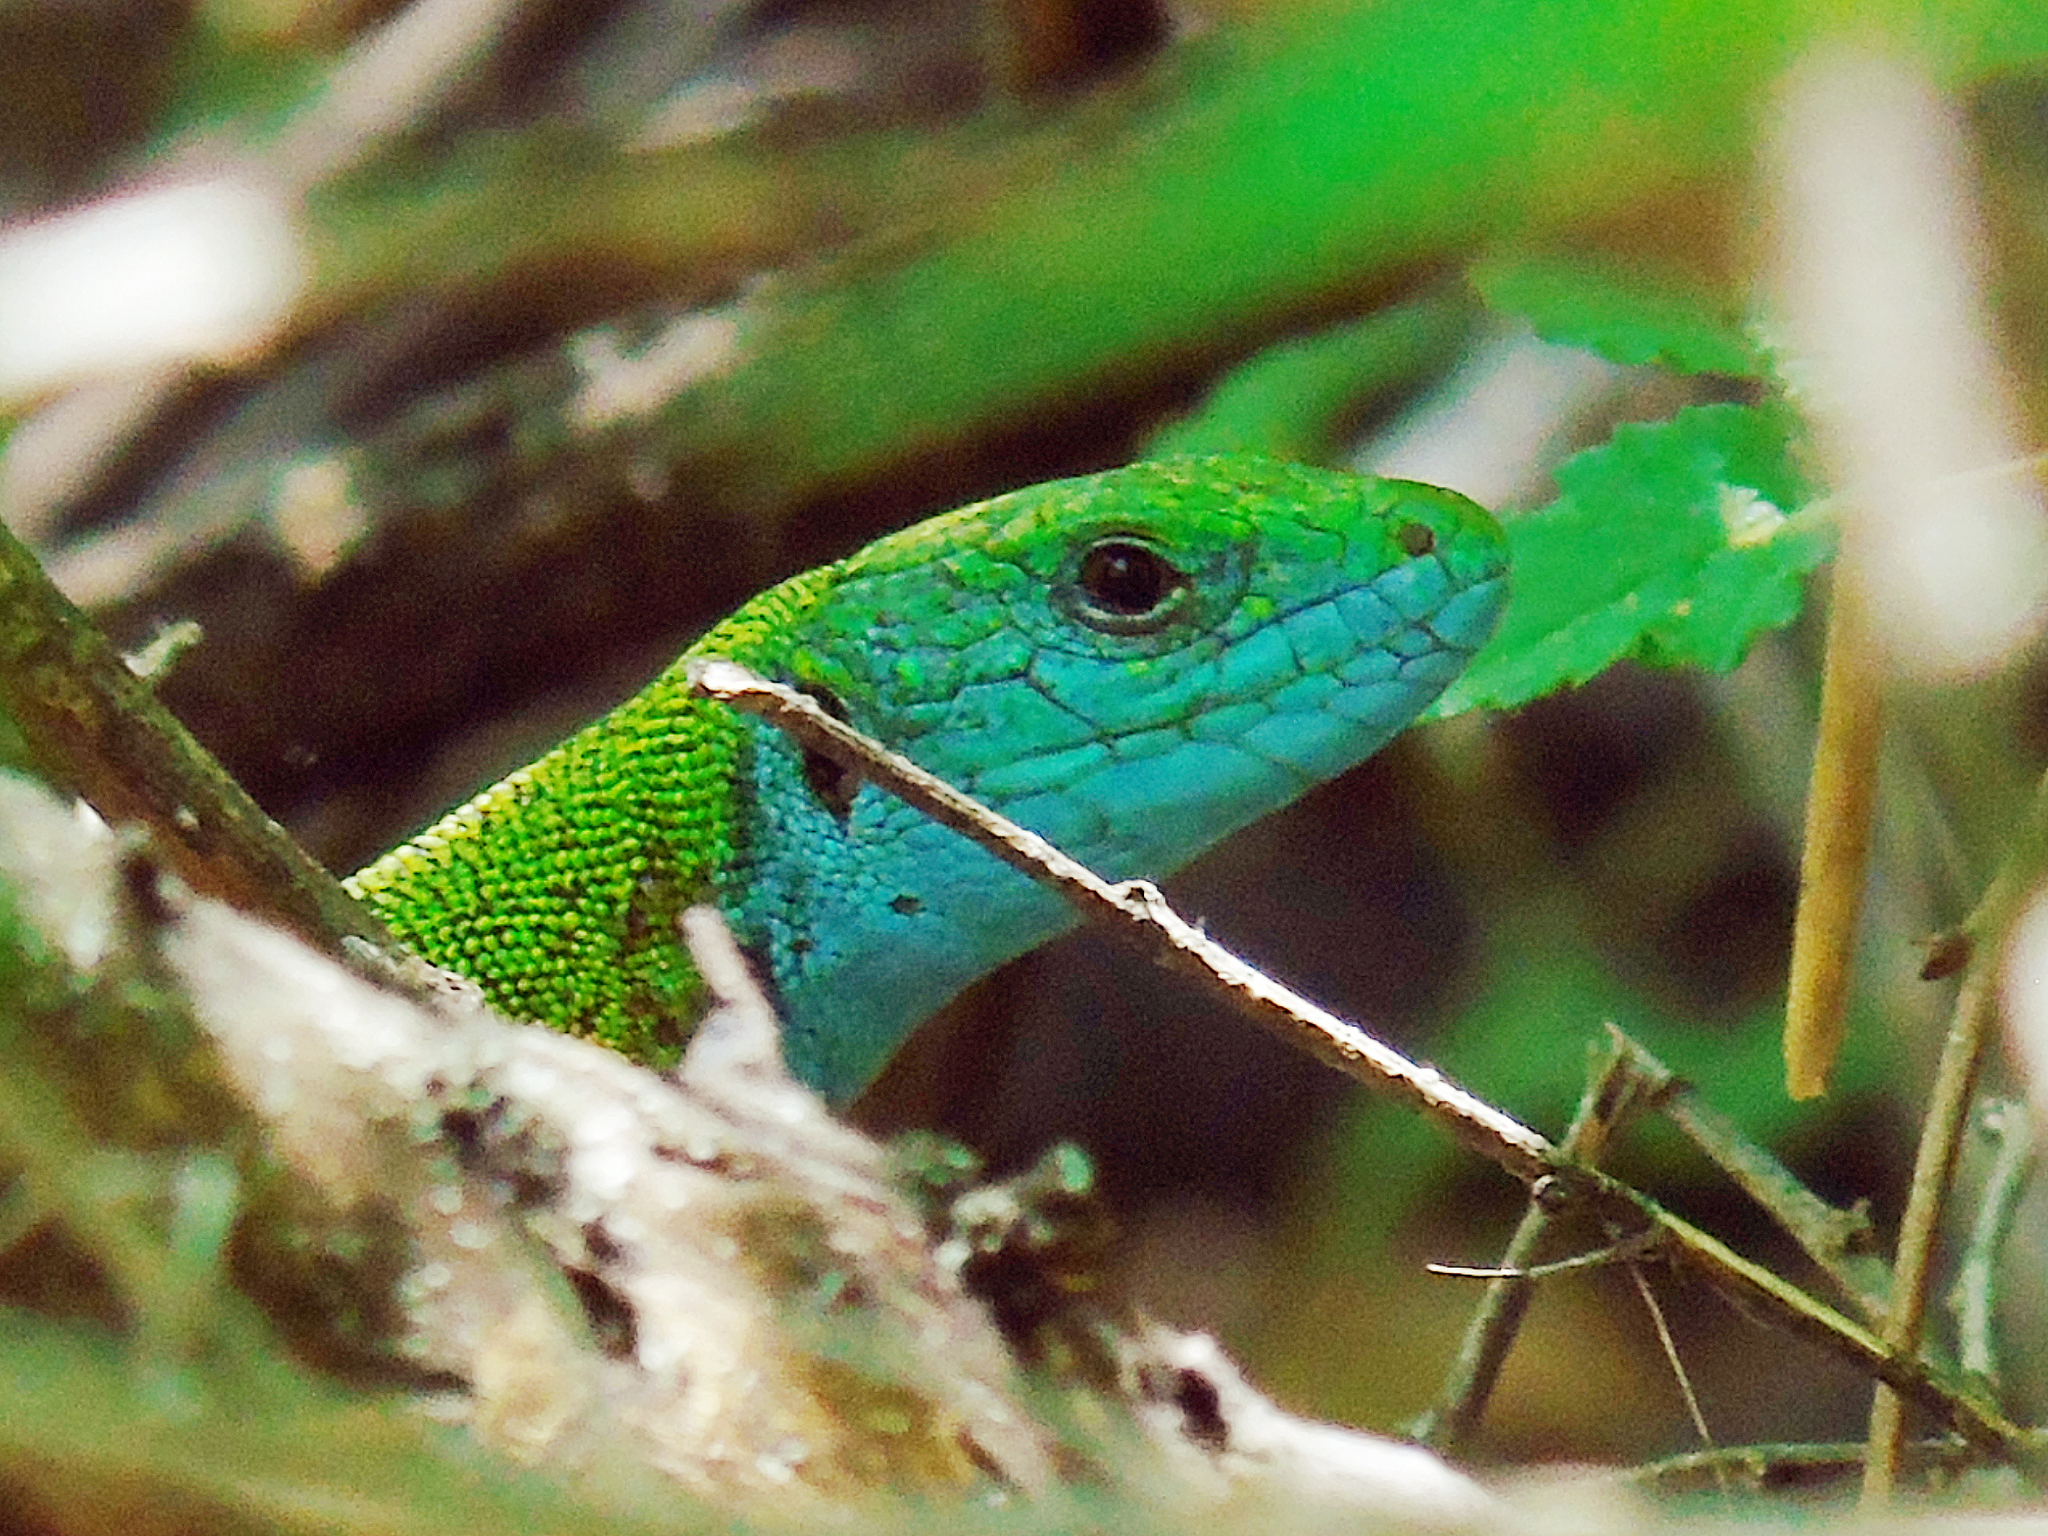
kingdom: Animalia
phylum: Chordata
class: Squamata
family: Lacertidae
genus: Lacerta
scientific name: Lacerta viridis
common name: European green lizard
